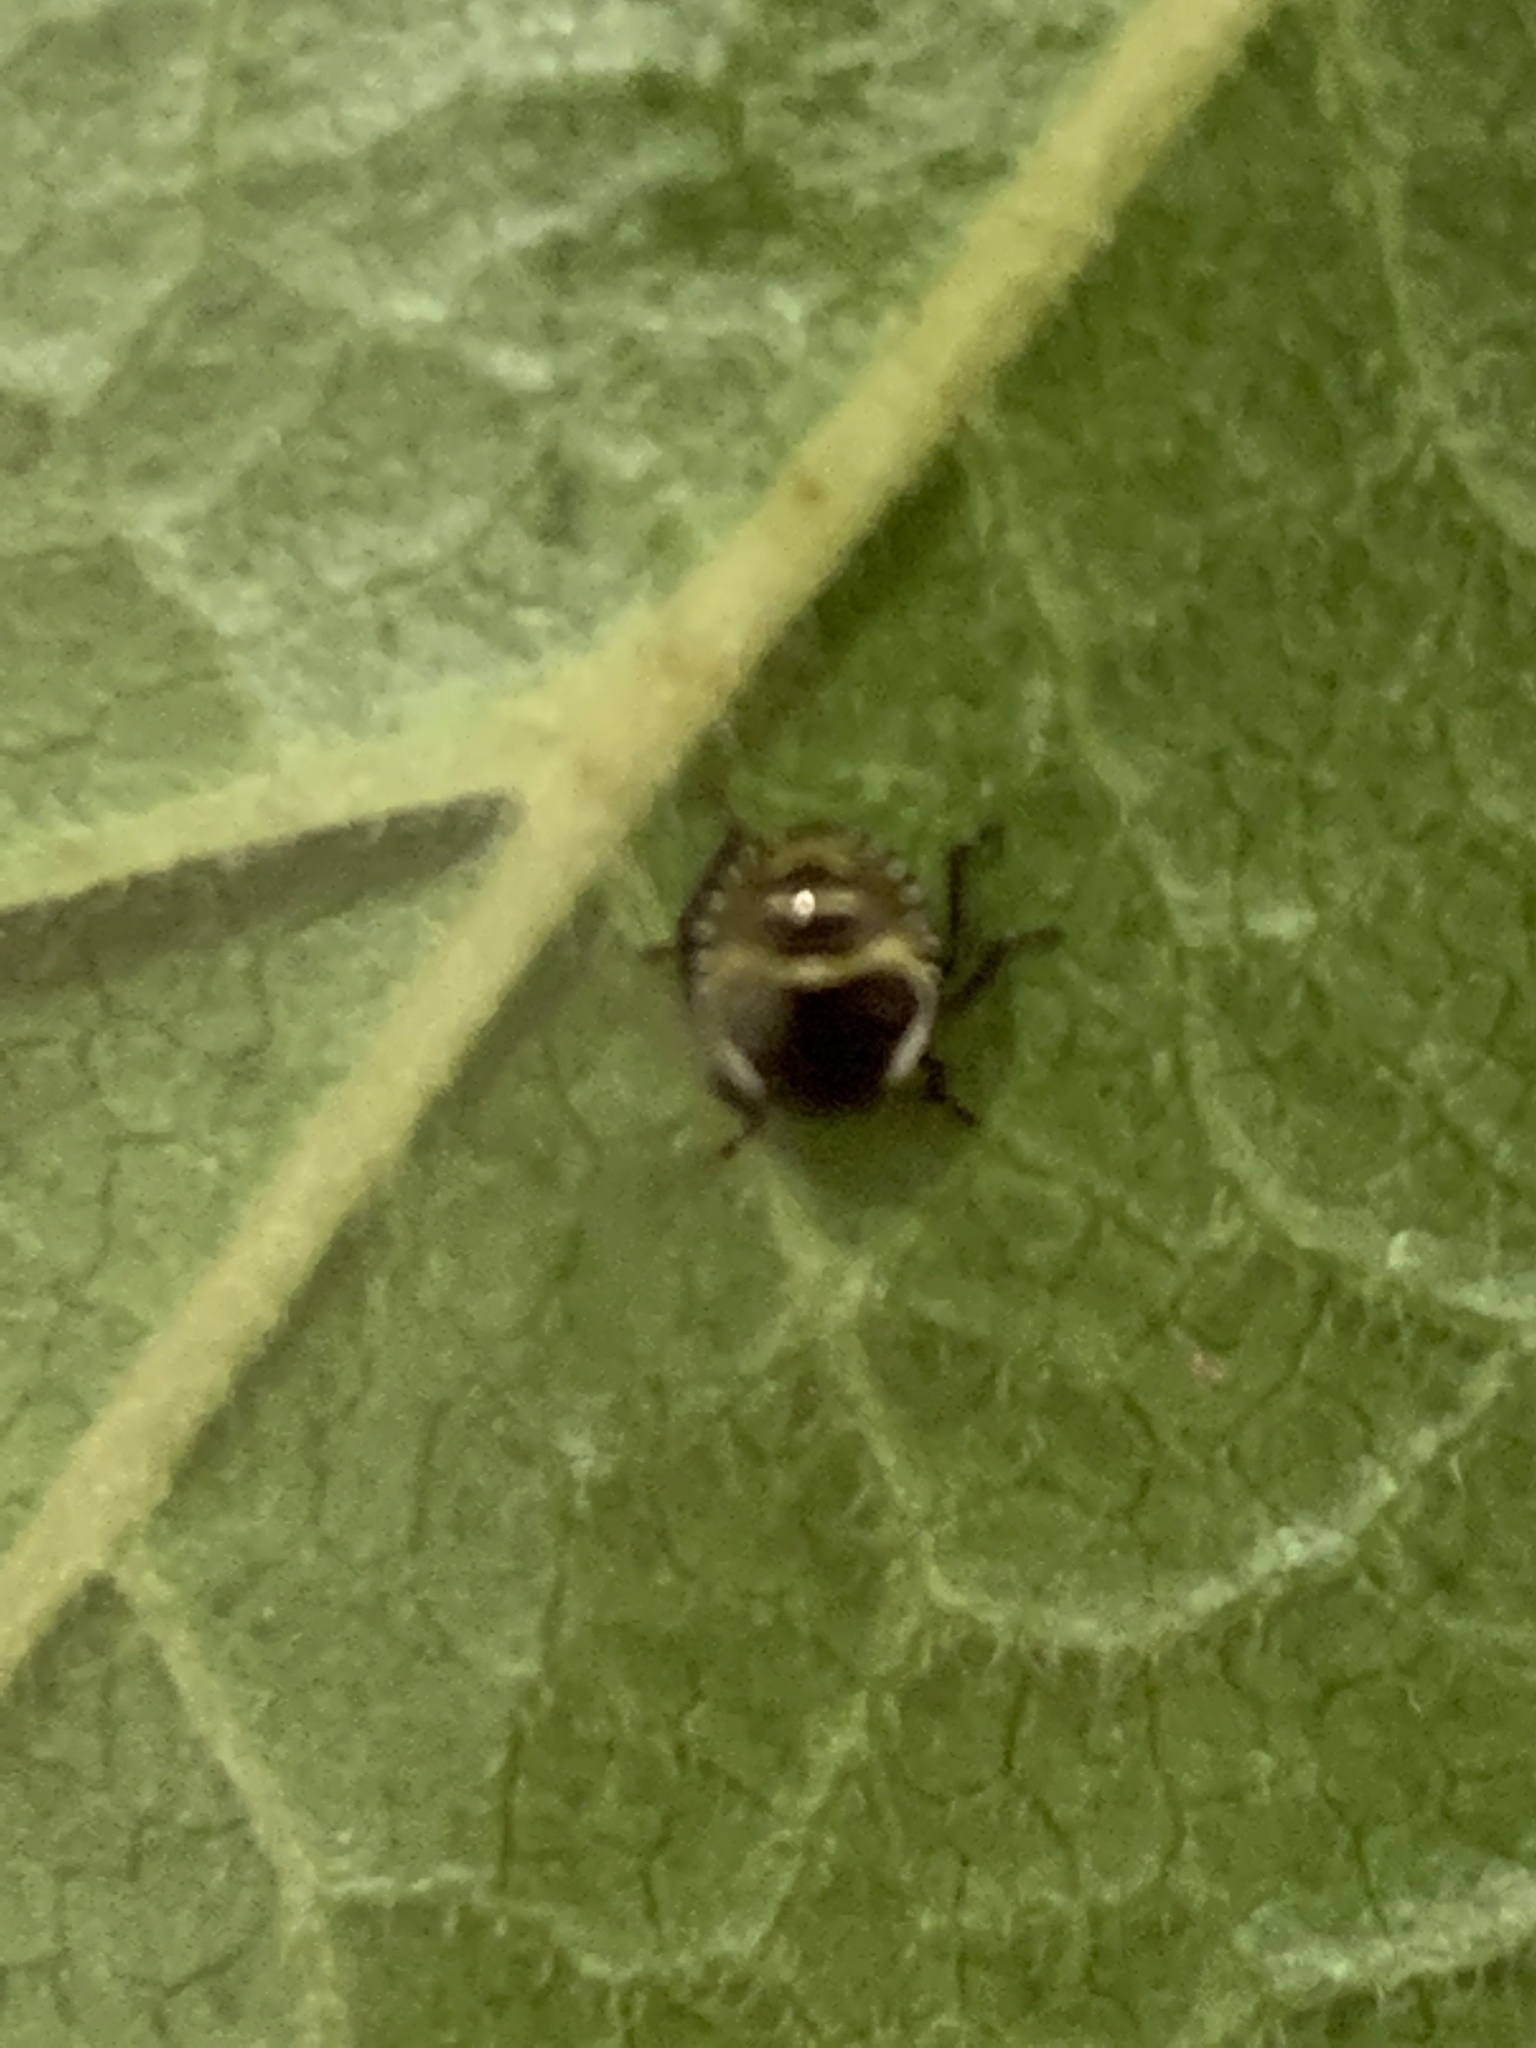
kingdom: Animalia
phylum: Arthropoda
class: Insecta
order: Hemiptera
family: Pentatomidae
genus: Palomena
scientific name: Palomena prasina
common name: Green shieldbug
